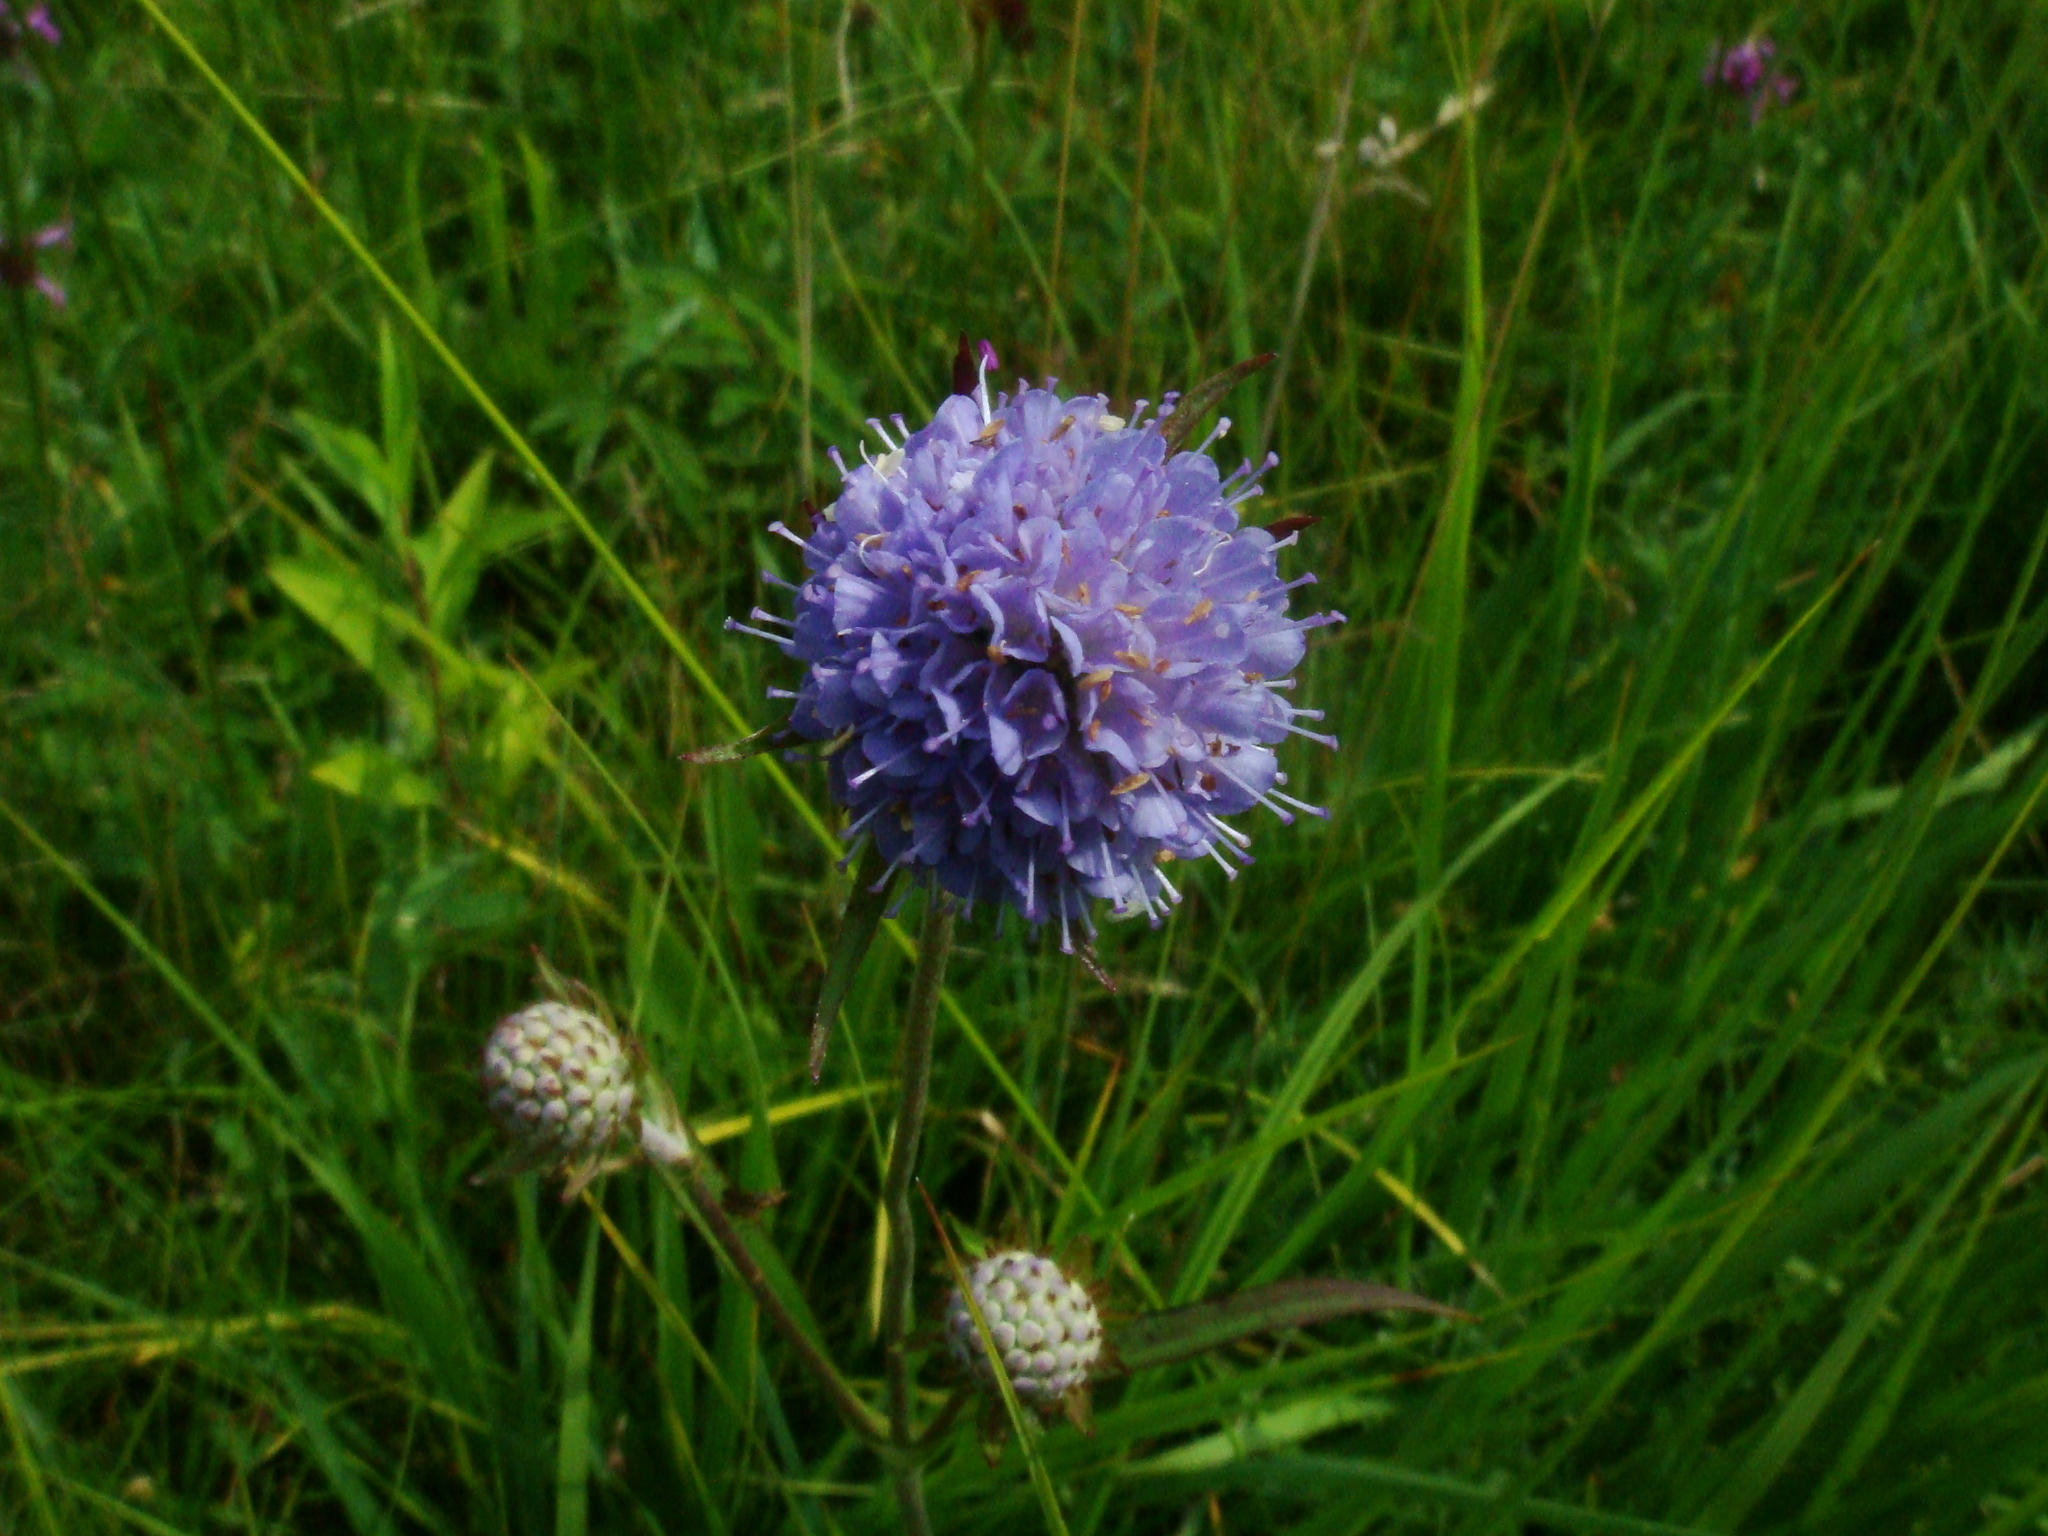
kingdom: Plantae
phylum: Tracheophyta
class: Magnoliopsida
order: Dipsacales
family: Caprifoliaceae
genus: Succisa
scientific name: Succisa pratensis
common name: Devil's-bit
